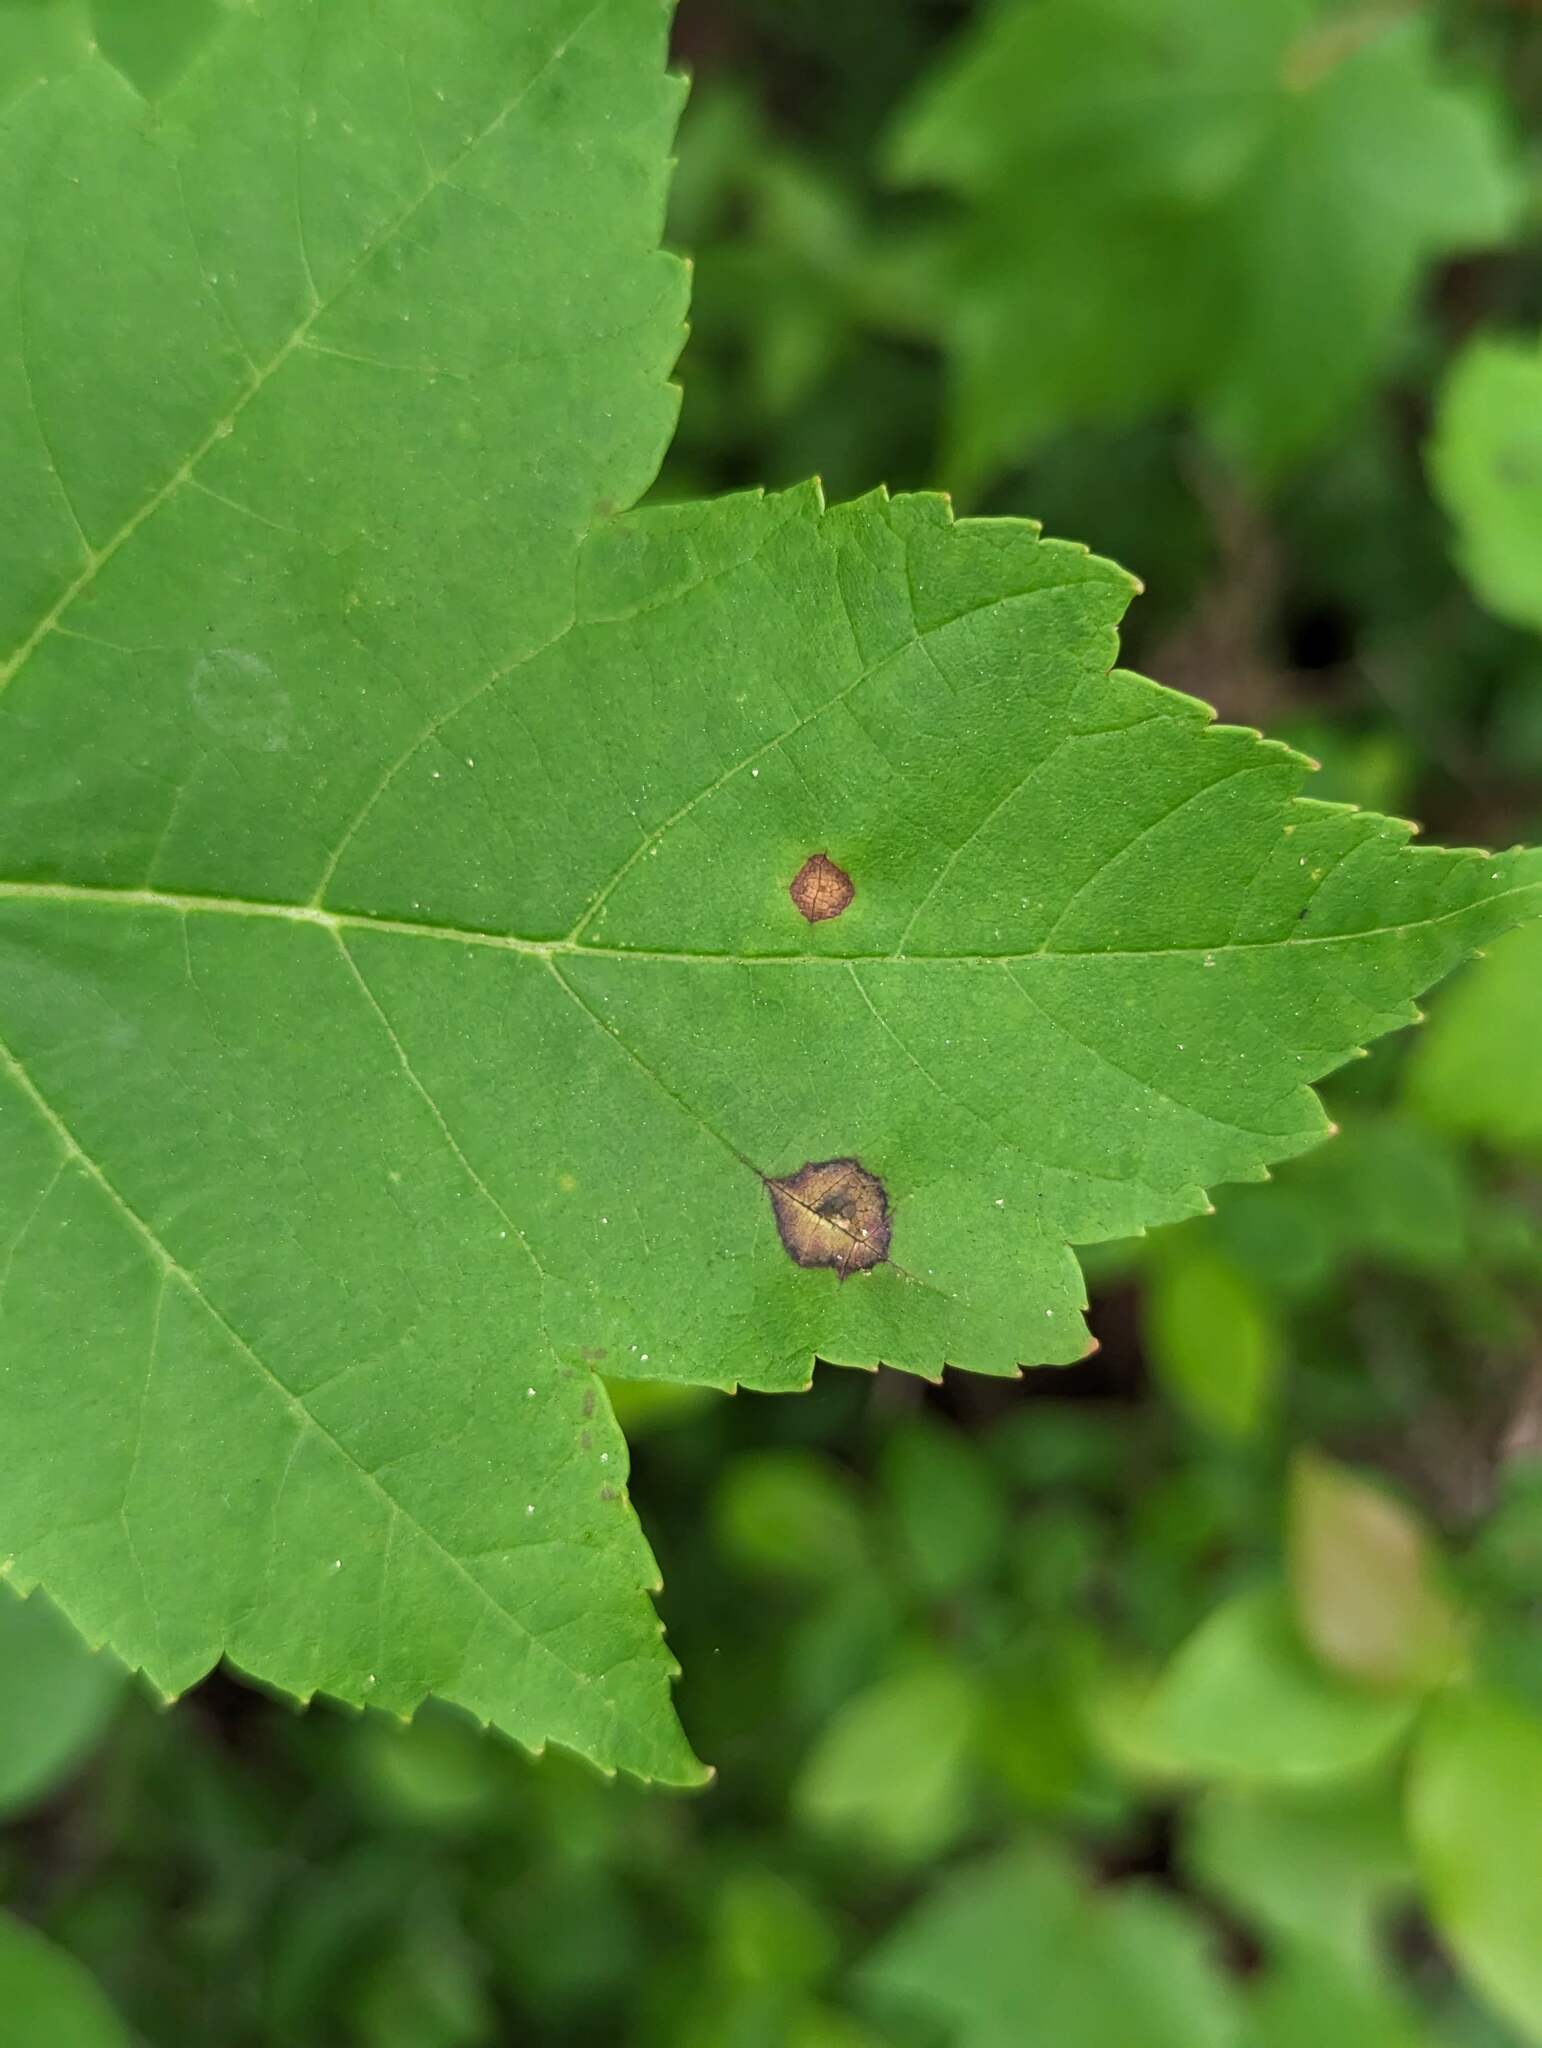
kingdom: Animalia
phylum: Arthropoda
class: Insecta
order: Diptera
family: Cecidomyiidae
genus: Acericecis
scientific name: Acericecis ocellaris
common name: Ocellate gall midge
